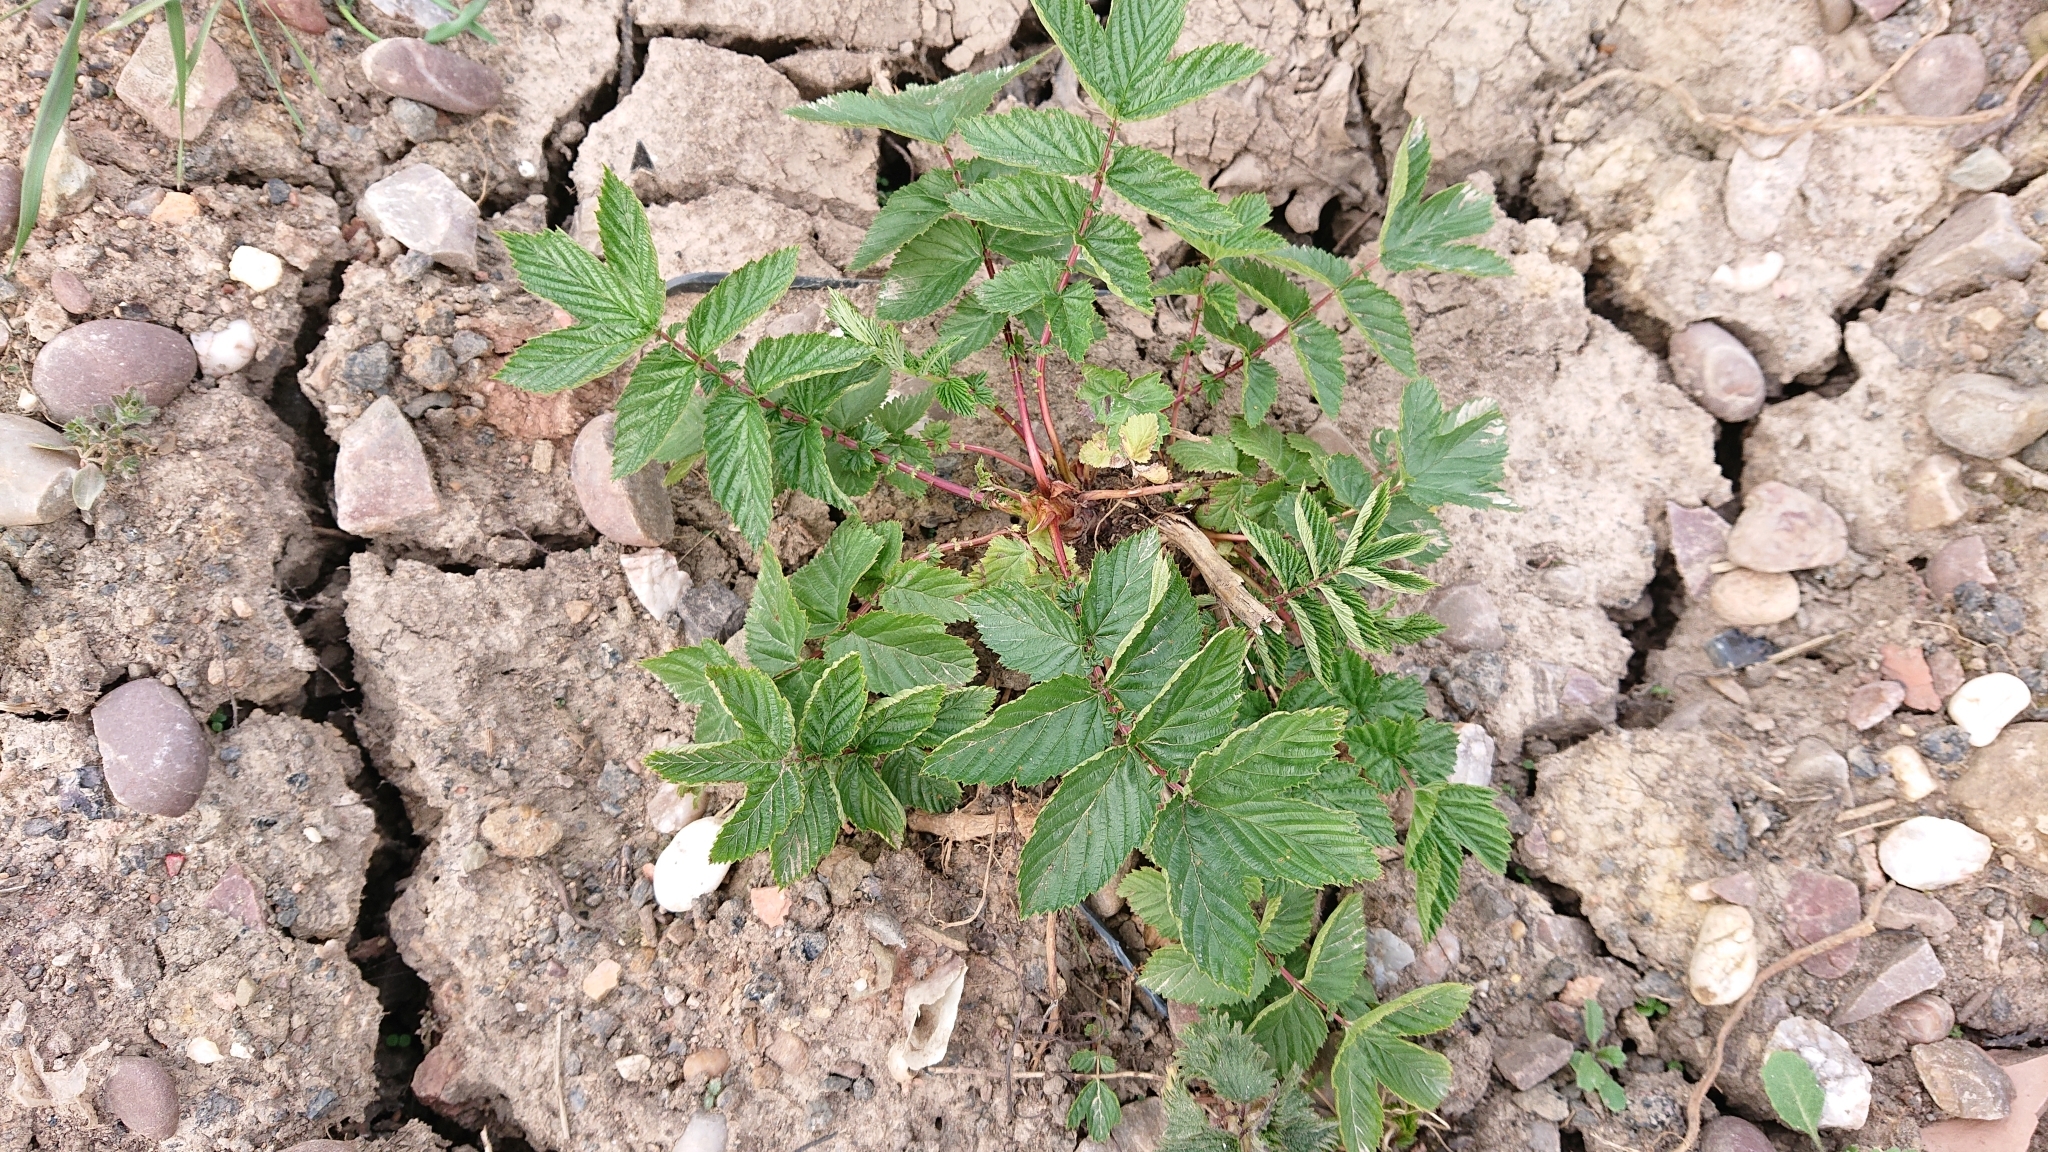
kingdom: Plantae
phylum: Tracheophyta
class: Magnoliopsida
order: Rosales
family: Rosaceae
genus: Filipendula
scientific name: Filipendula ulmaria
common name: Meadowsweet
